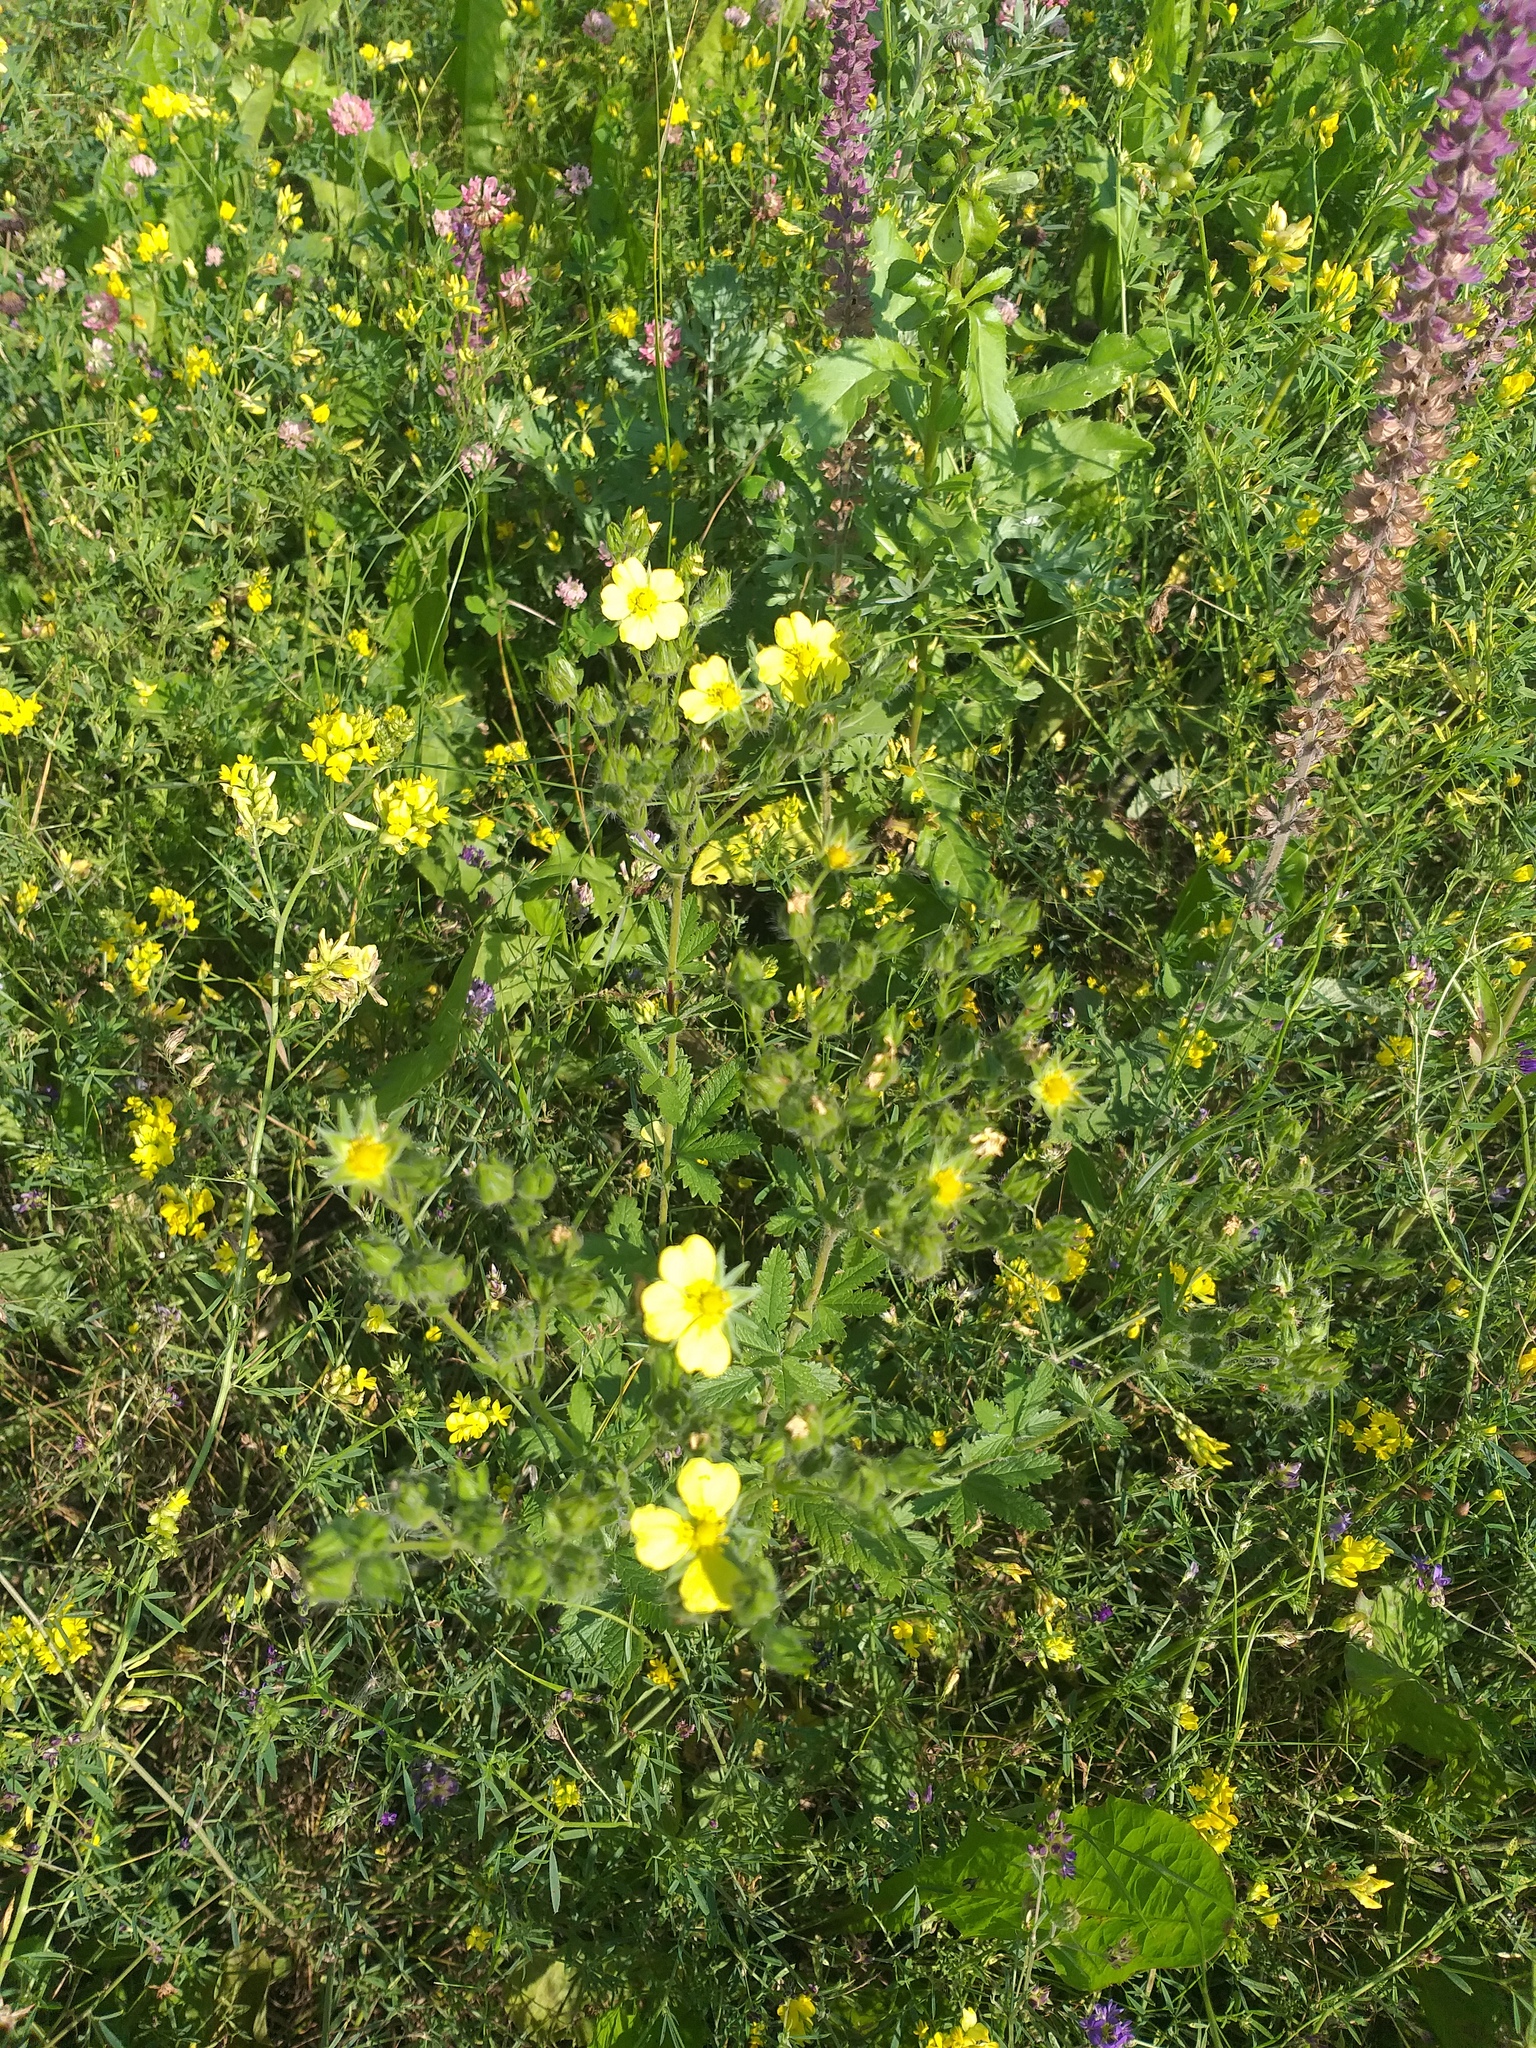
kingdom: Plantae
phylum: Tracheophyta
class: Magnoliopsida
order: Rosales
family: Rosaceae
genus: Potentilla
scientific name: Potentilla recta
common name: Sulphur cinquefoil
